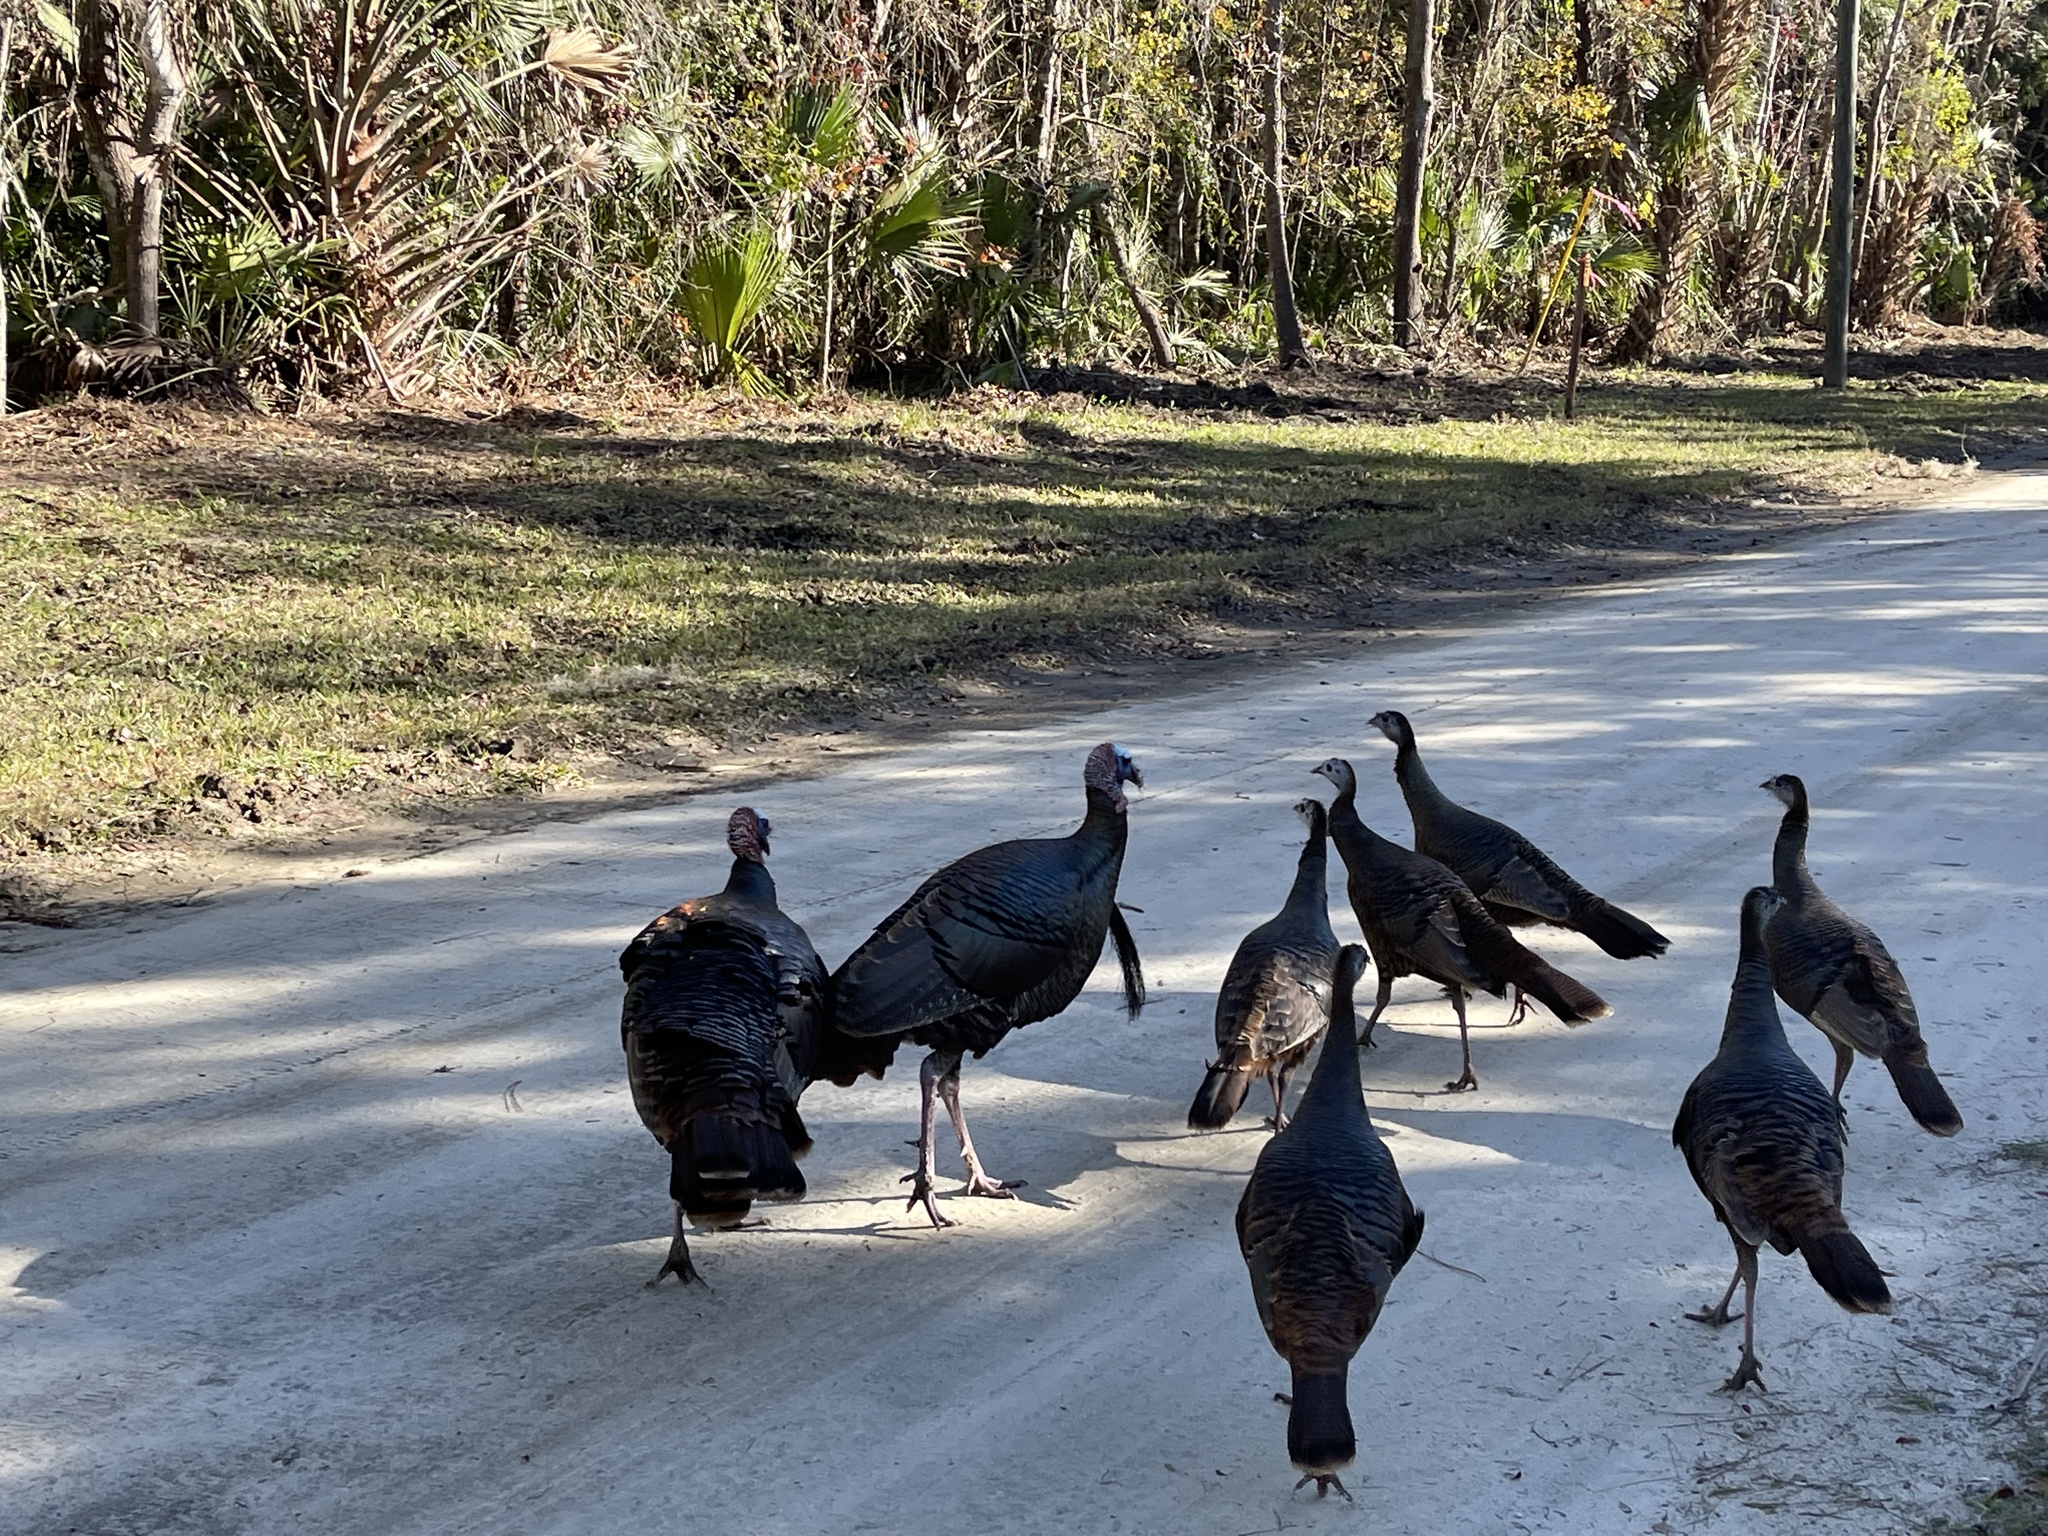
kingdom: Animalia
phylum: Chordata
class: Aves
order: Galliformes
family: Phasianidae
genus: Meleagris
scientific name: Meleagris gallopavo
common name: Wild turkey
